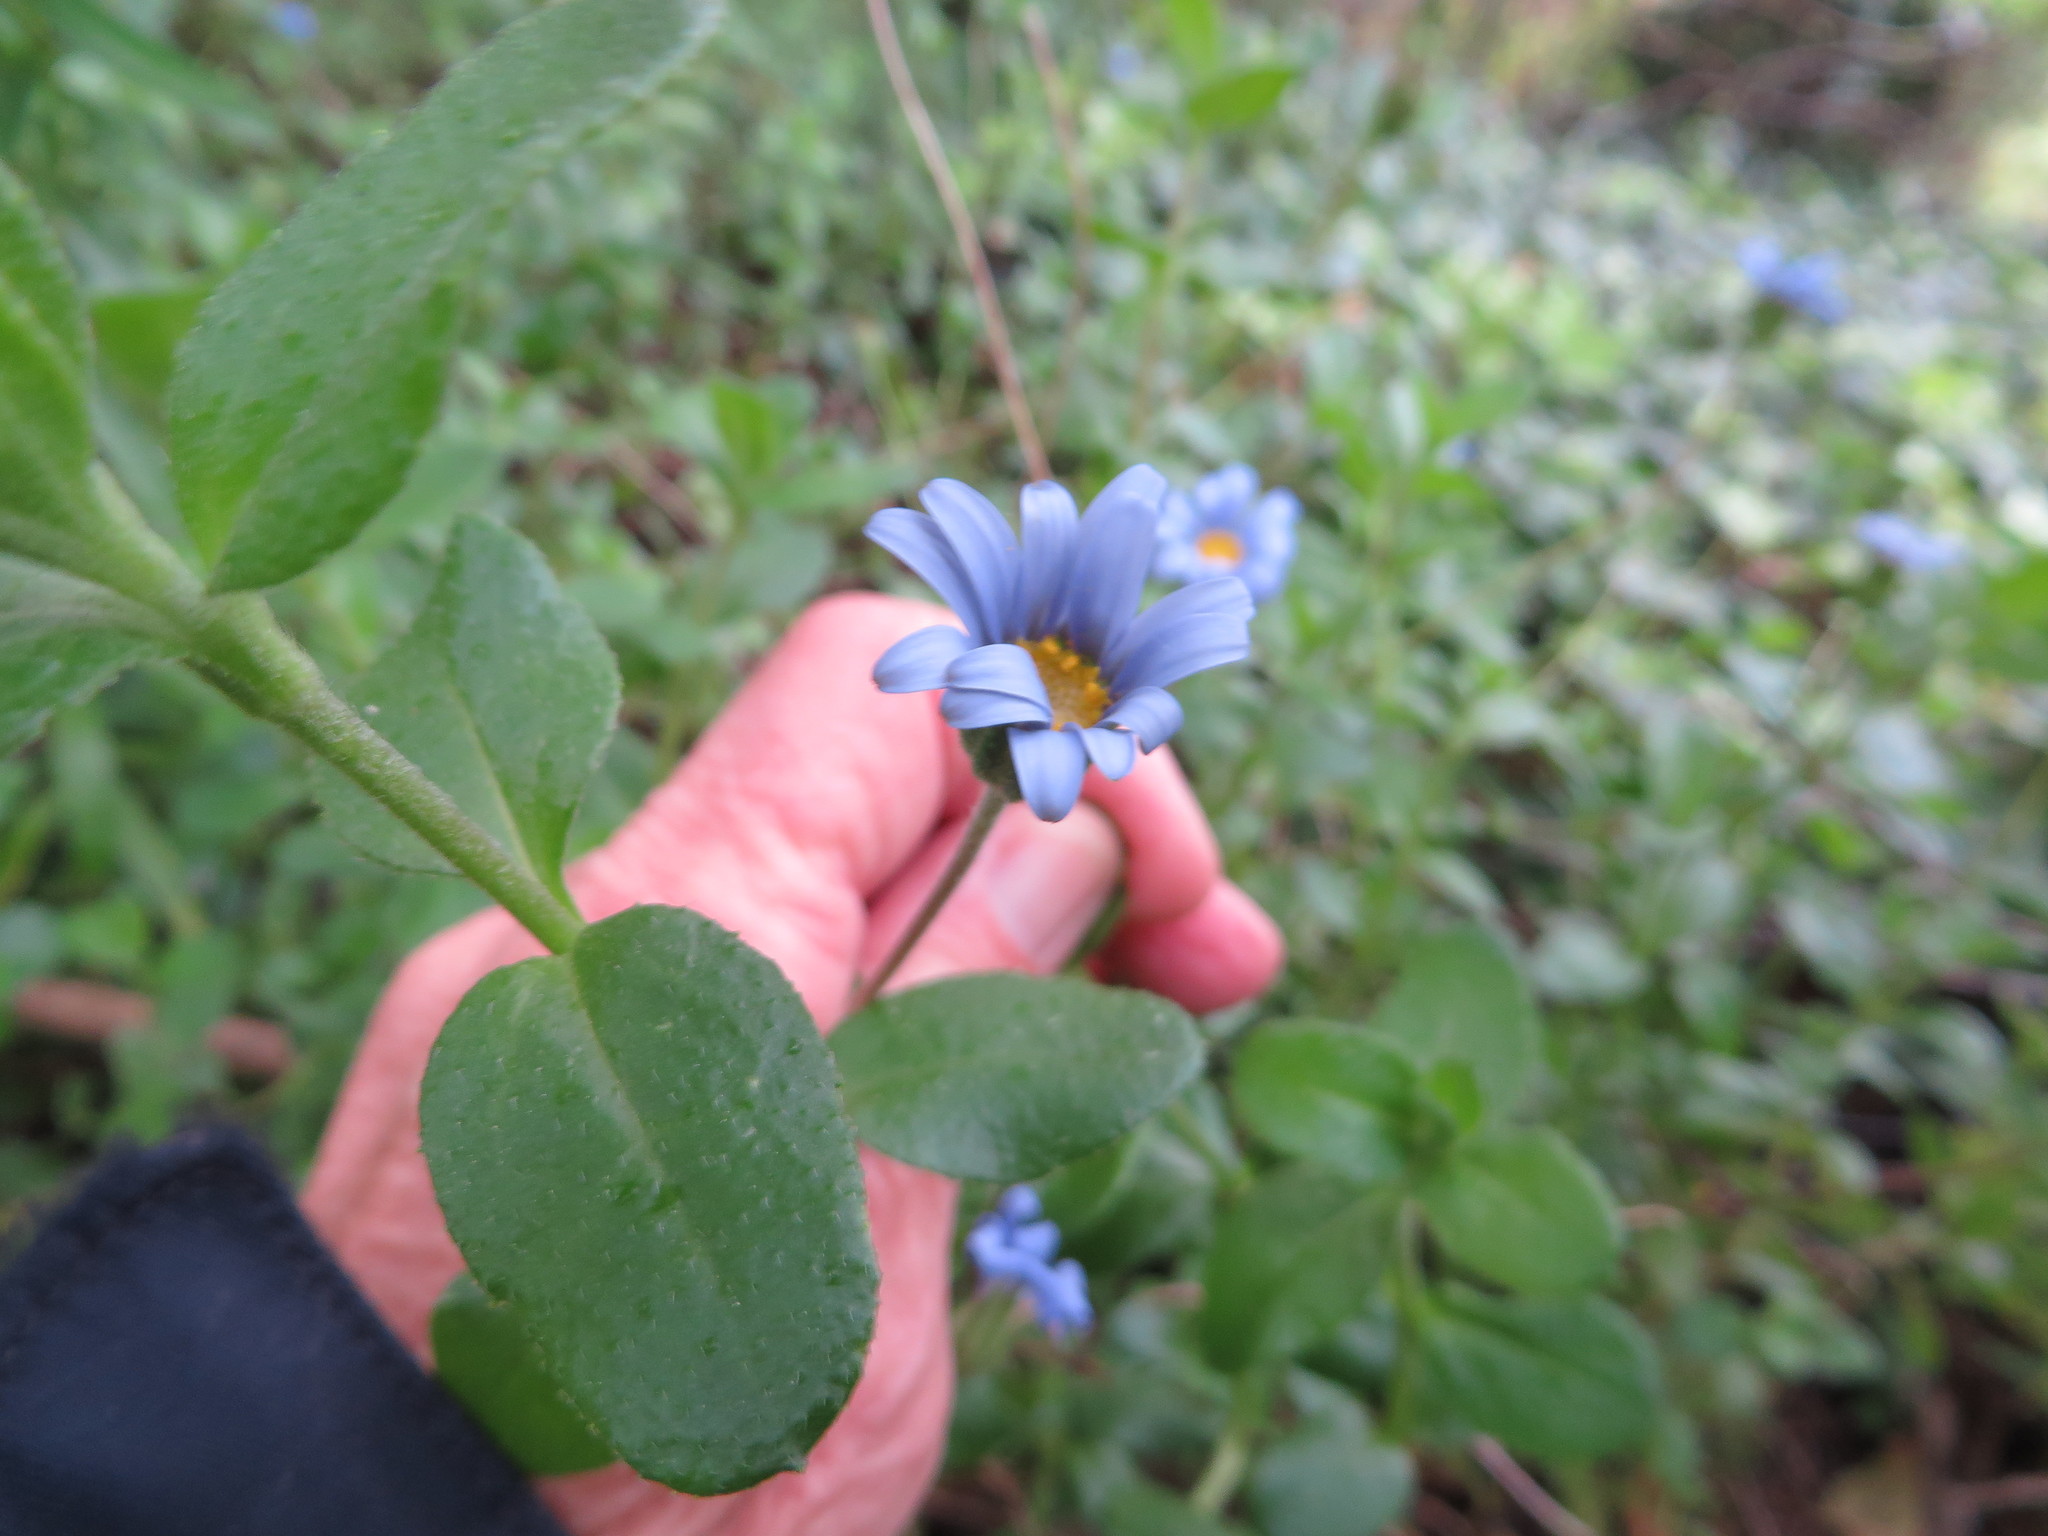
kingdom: Plantae
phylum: Tracheophyta
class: Magnoliopsida
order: Asterales
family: Asteraceae
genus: Felicia
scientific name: Felicia aethiopica
